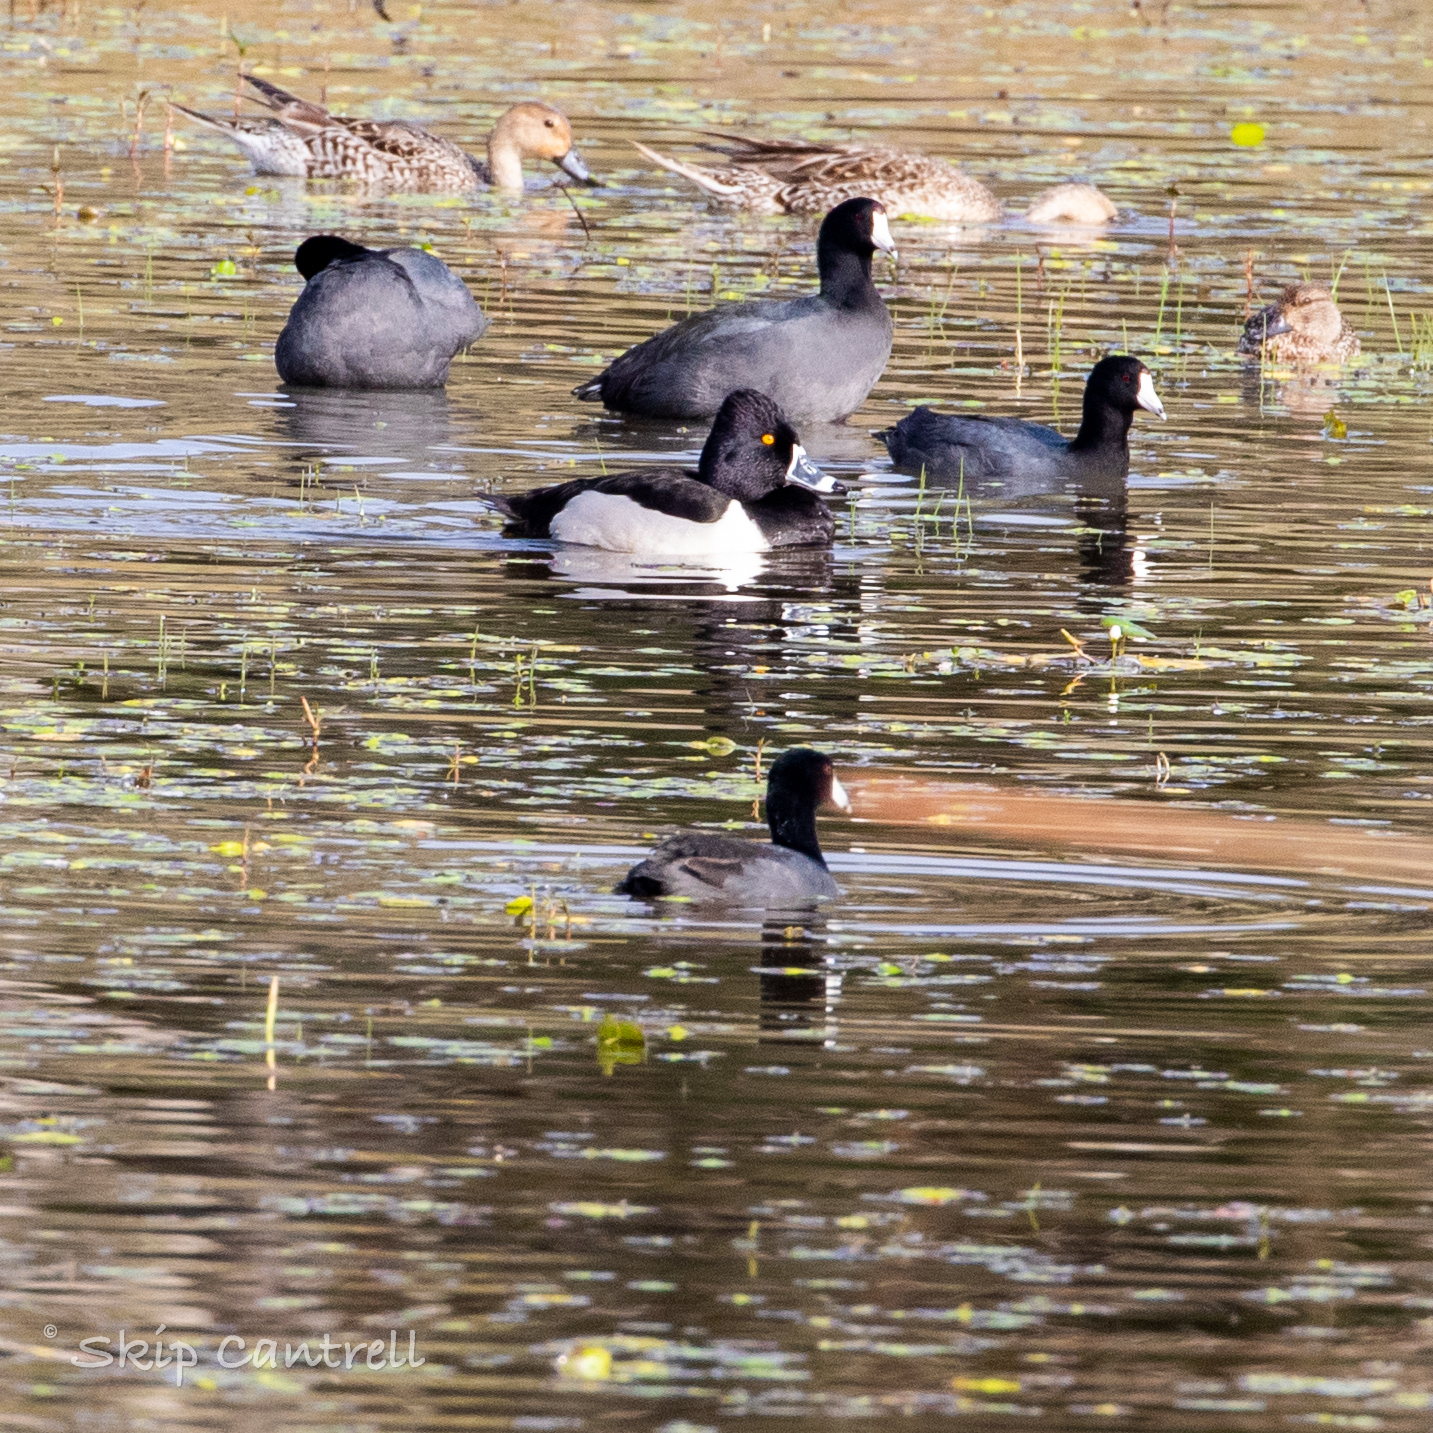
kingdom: Animalia
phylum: Chordata
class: Aves
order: Anseriformes
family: Anatidae
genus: Aythya
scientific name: Aythya collaris
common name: Ring-necked duck
